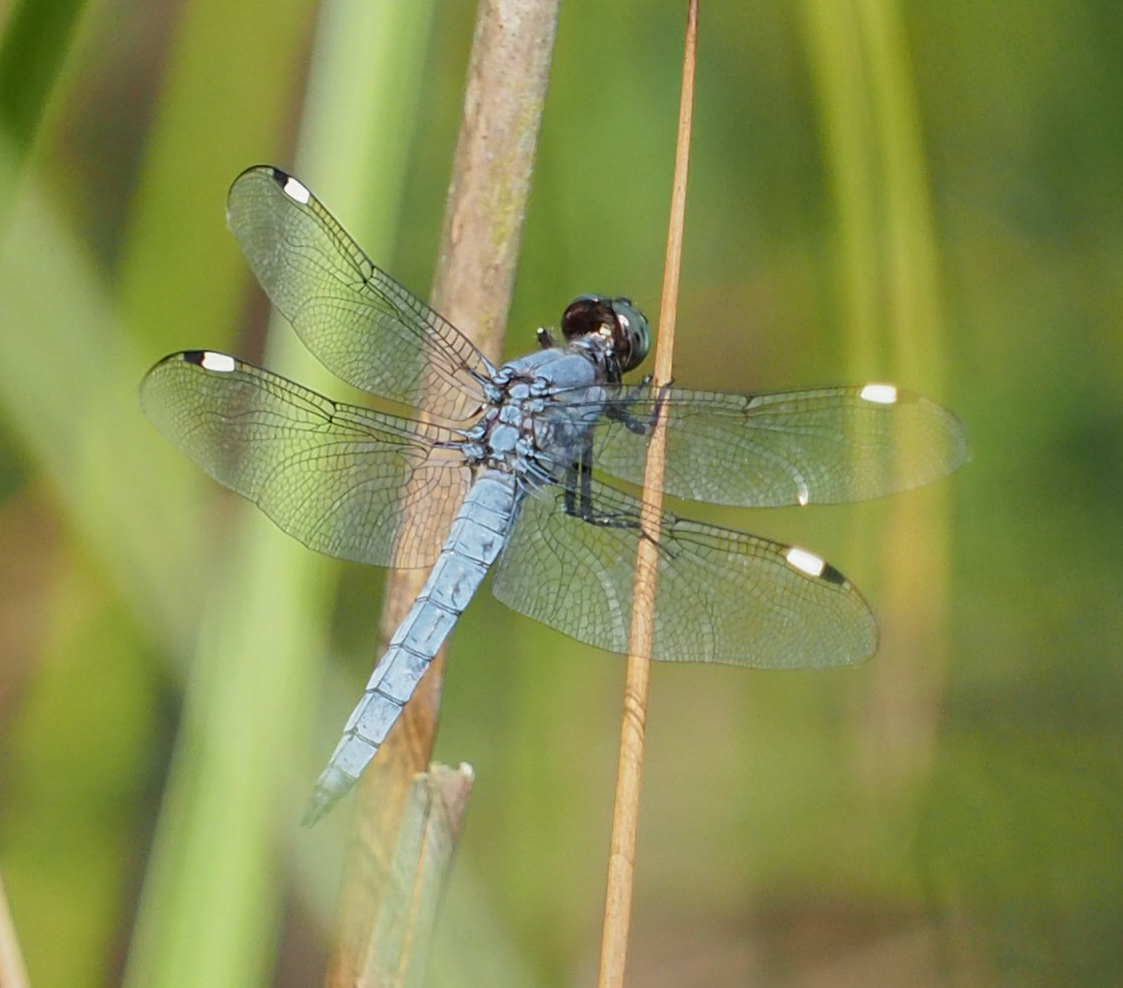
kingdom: Animalia
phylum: Arthropoda
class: Insecta
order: Odonata
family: Libellulidae
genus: Libellula
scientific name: Libellula cyanea
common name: Spangled skimmer
